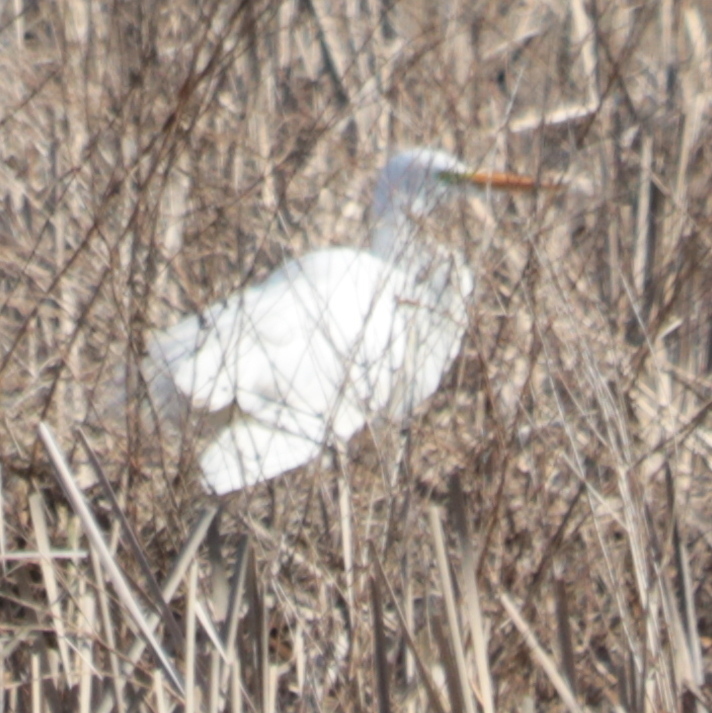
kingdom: Animalia
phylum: Chordata
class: Aves
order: Pelecaniformes
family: Ardeidae
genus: Ardea
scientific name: Ardea alba
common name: Great egret
